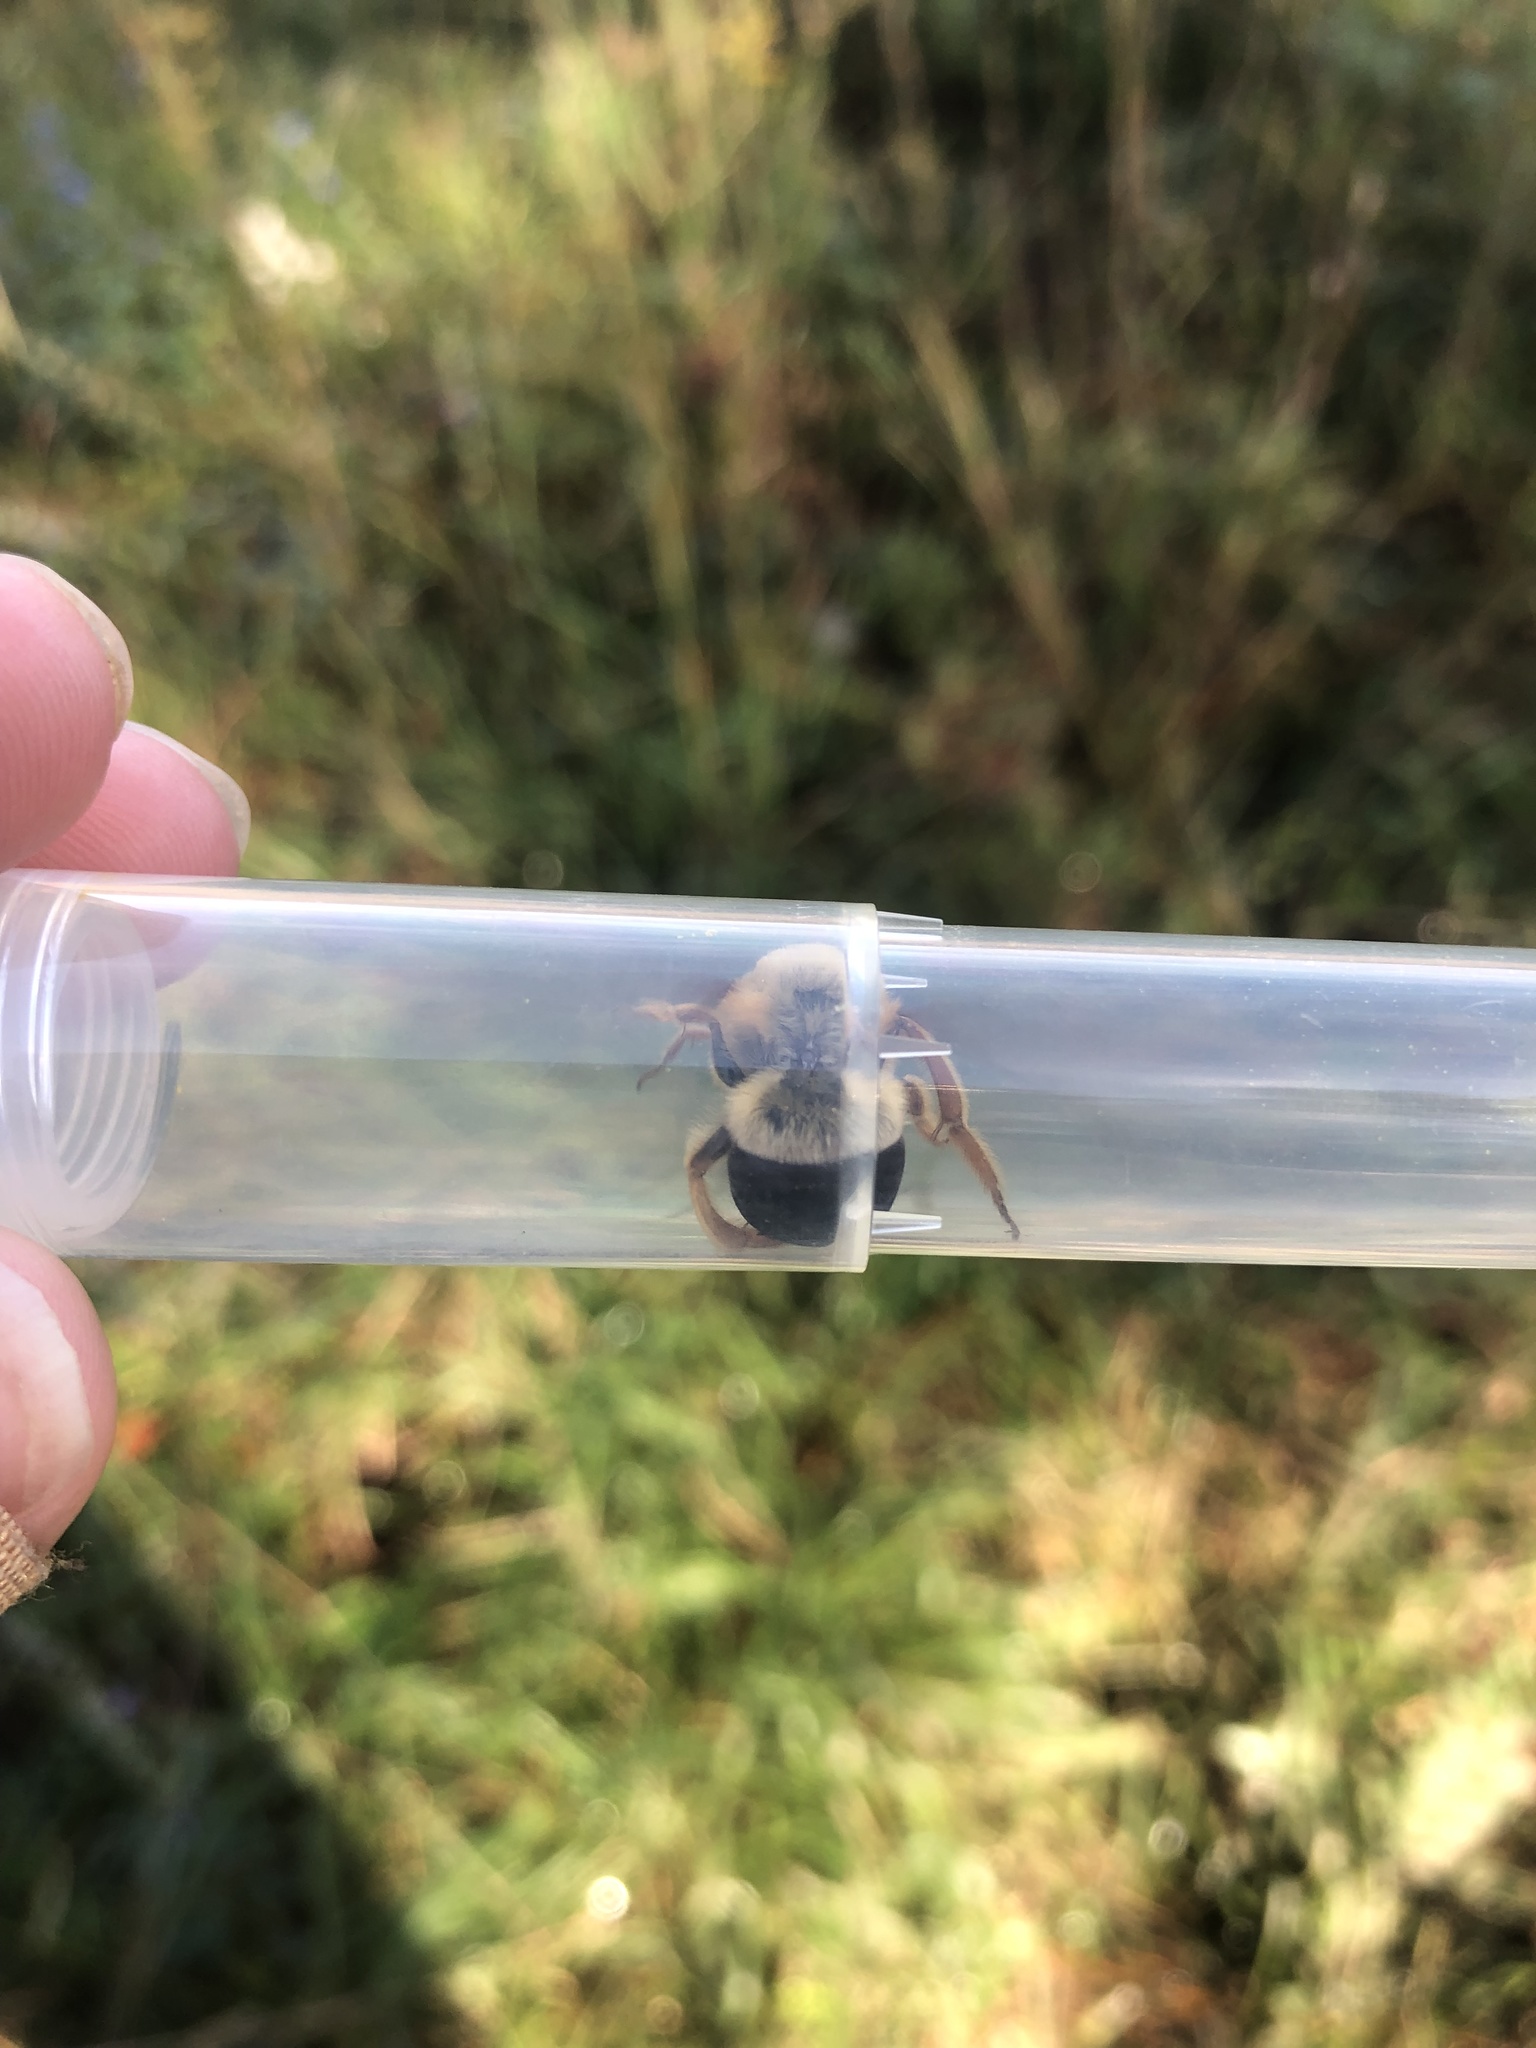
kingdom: Animalia
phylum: Arthropoda
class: Insecta
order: Hymenoptera
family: Colletidae
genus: Caupolicana
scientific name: Caupolicana electa
